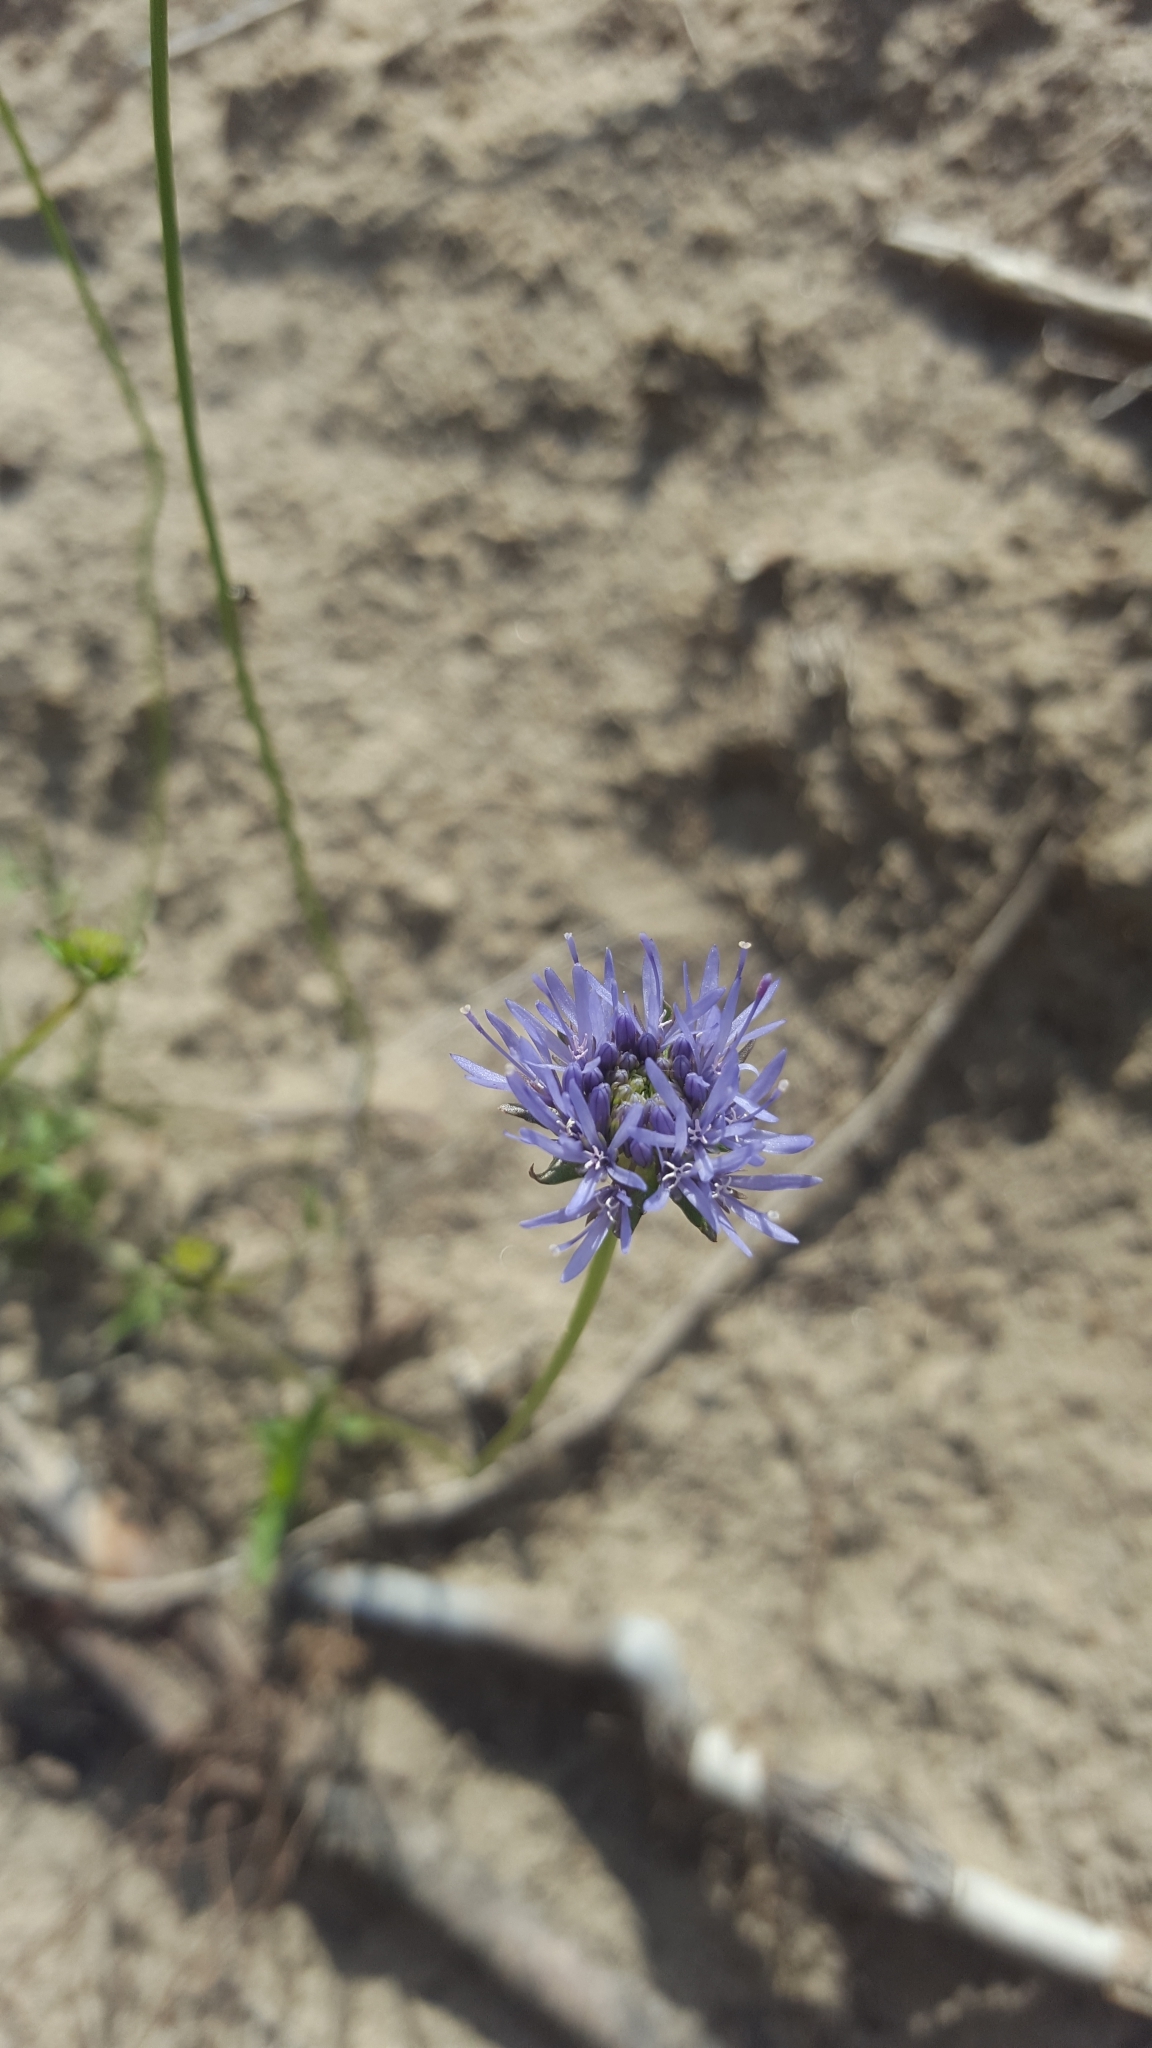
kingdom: Plantae
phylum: Tracheophyta
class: Magnoliopsida
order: Asterales
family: Campanulaceae
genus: Jasione
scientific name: Jasione montana
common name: Sheep's-bit
